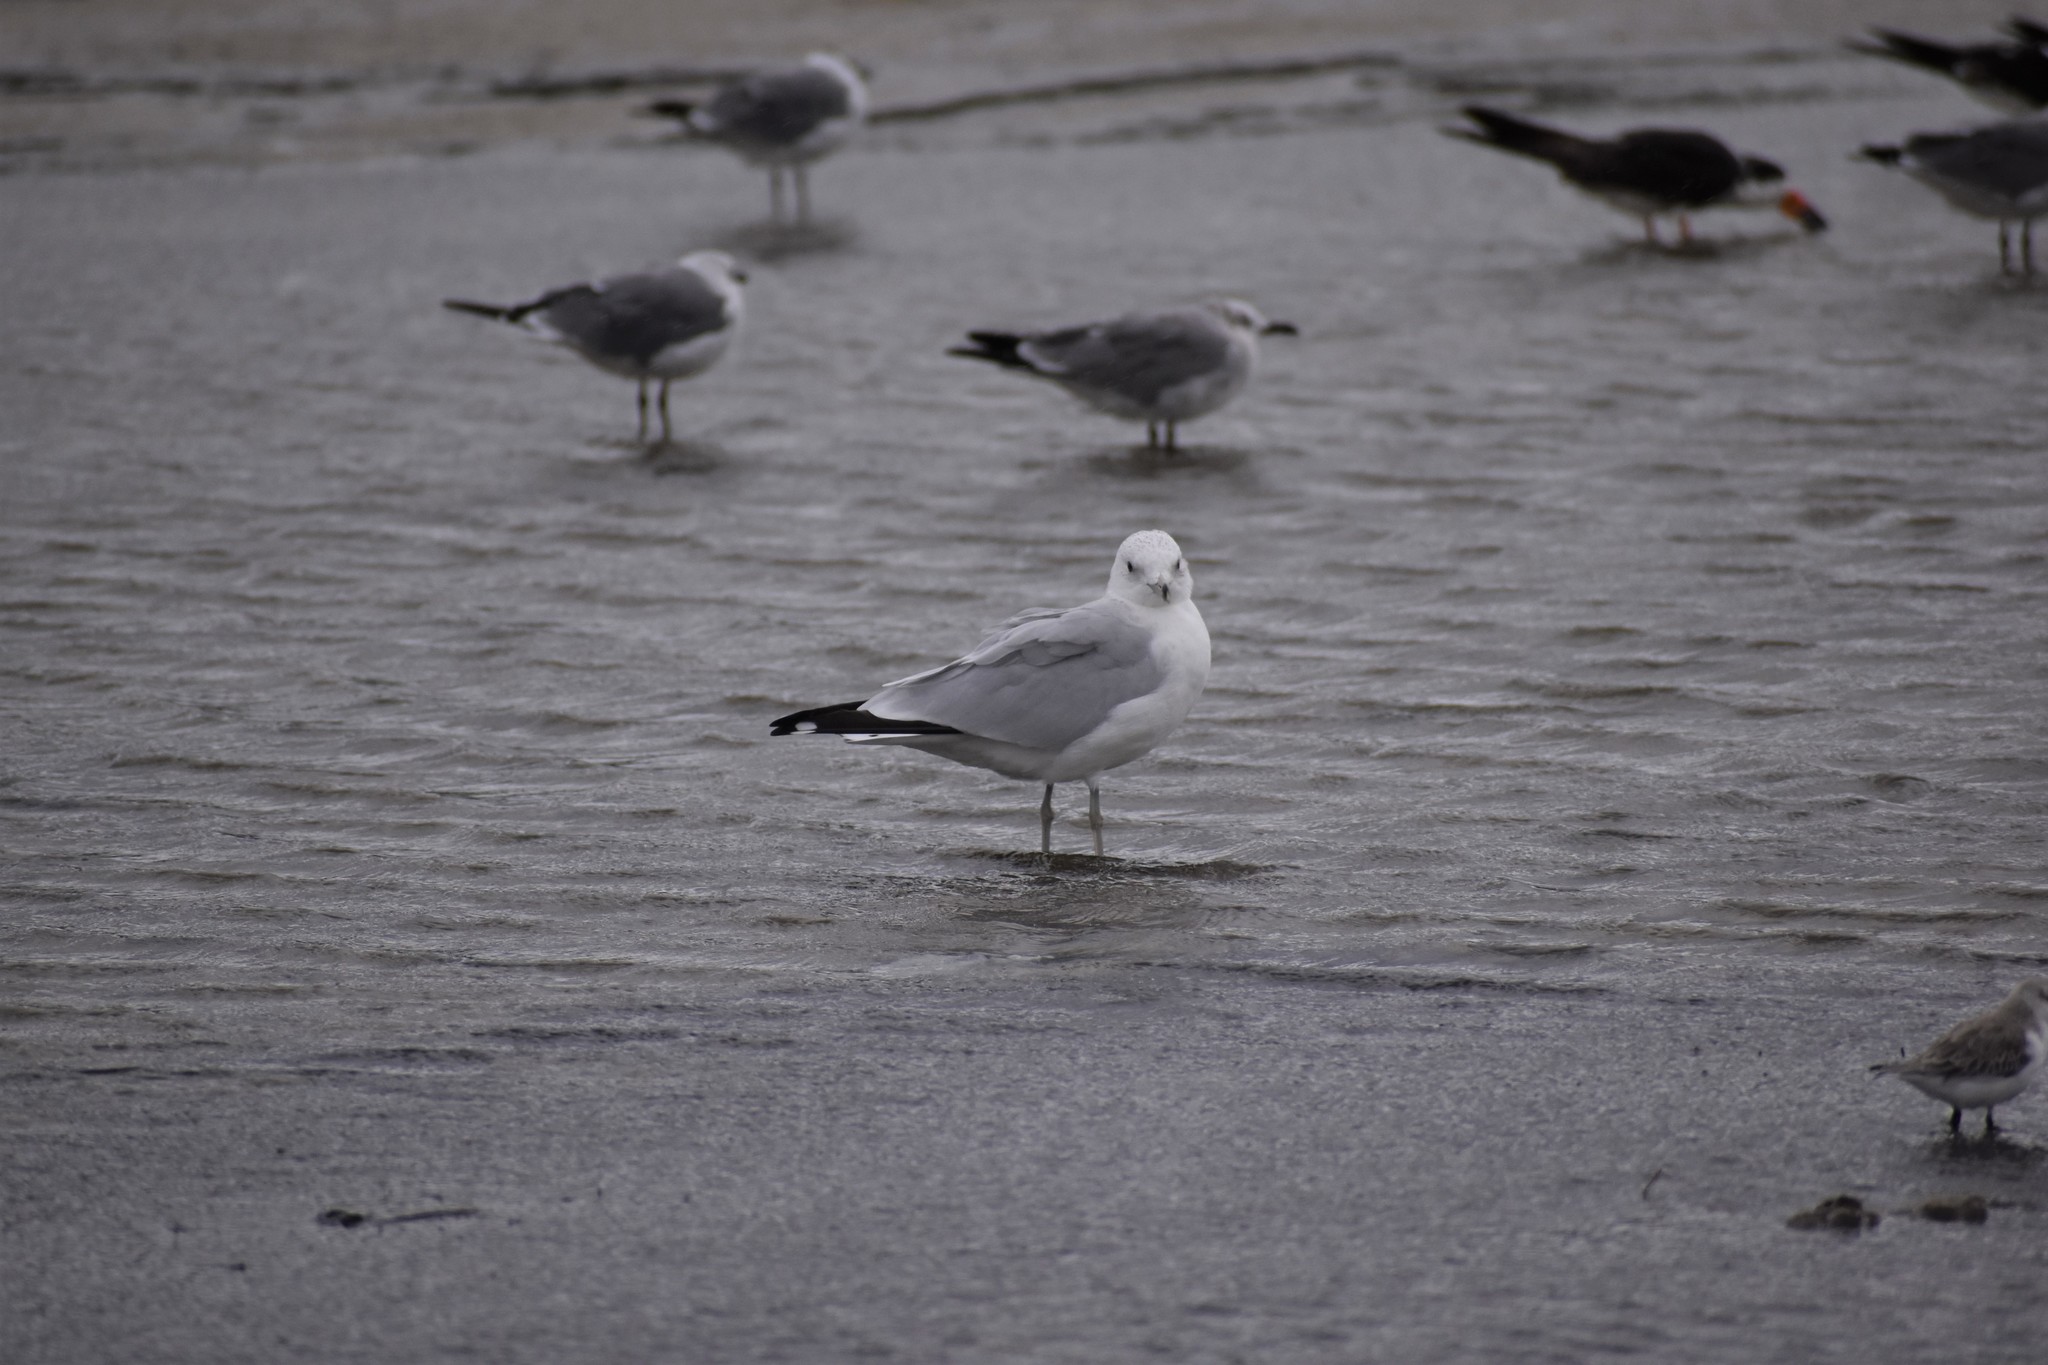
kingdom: Animalia
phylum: Chordata
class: Aves
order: Charadriiformes
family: Laridae
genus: Larus
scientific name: Larus delawarensis
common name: Ring-billed gull
